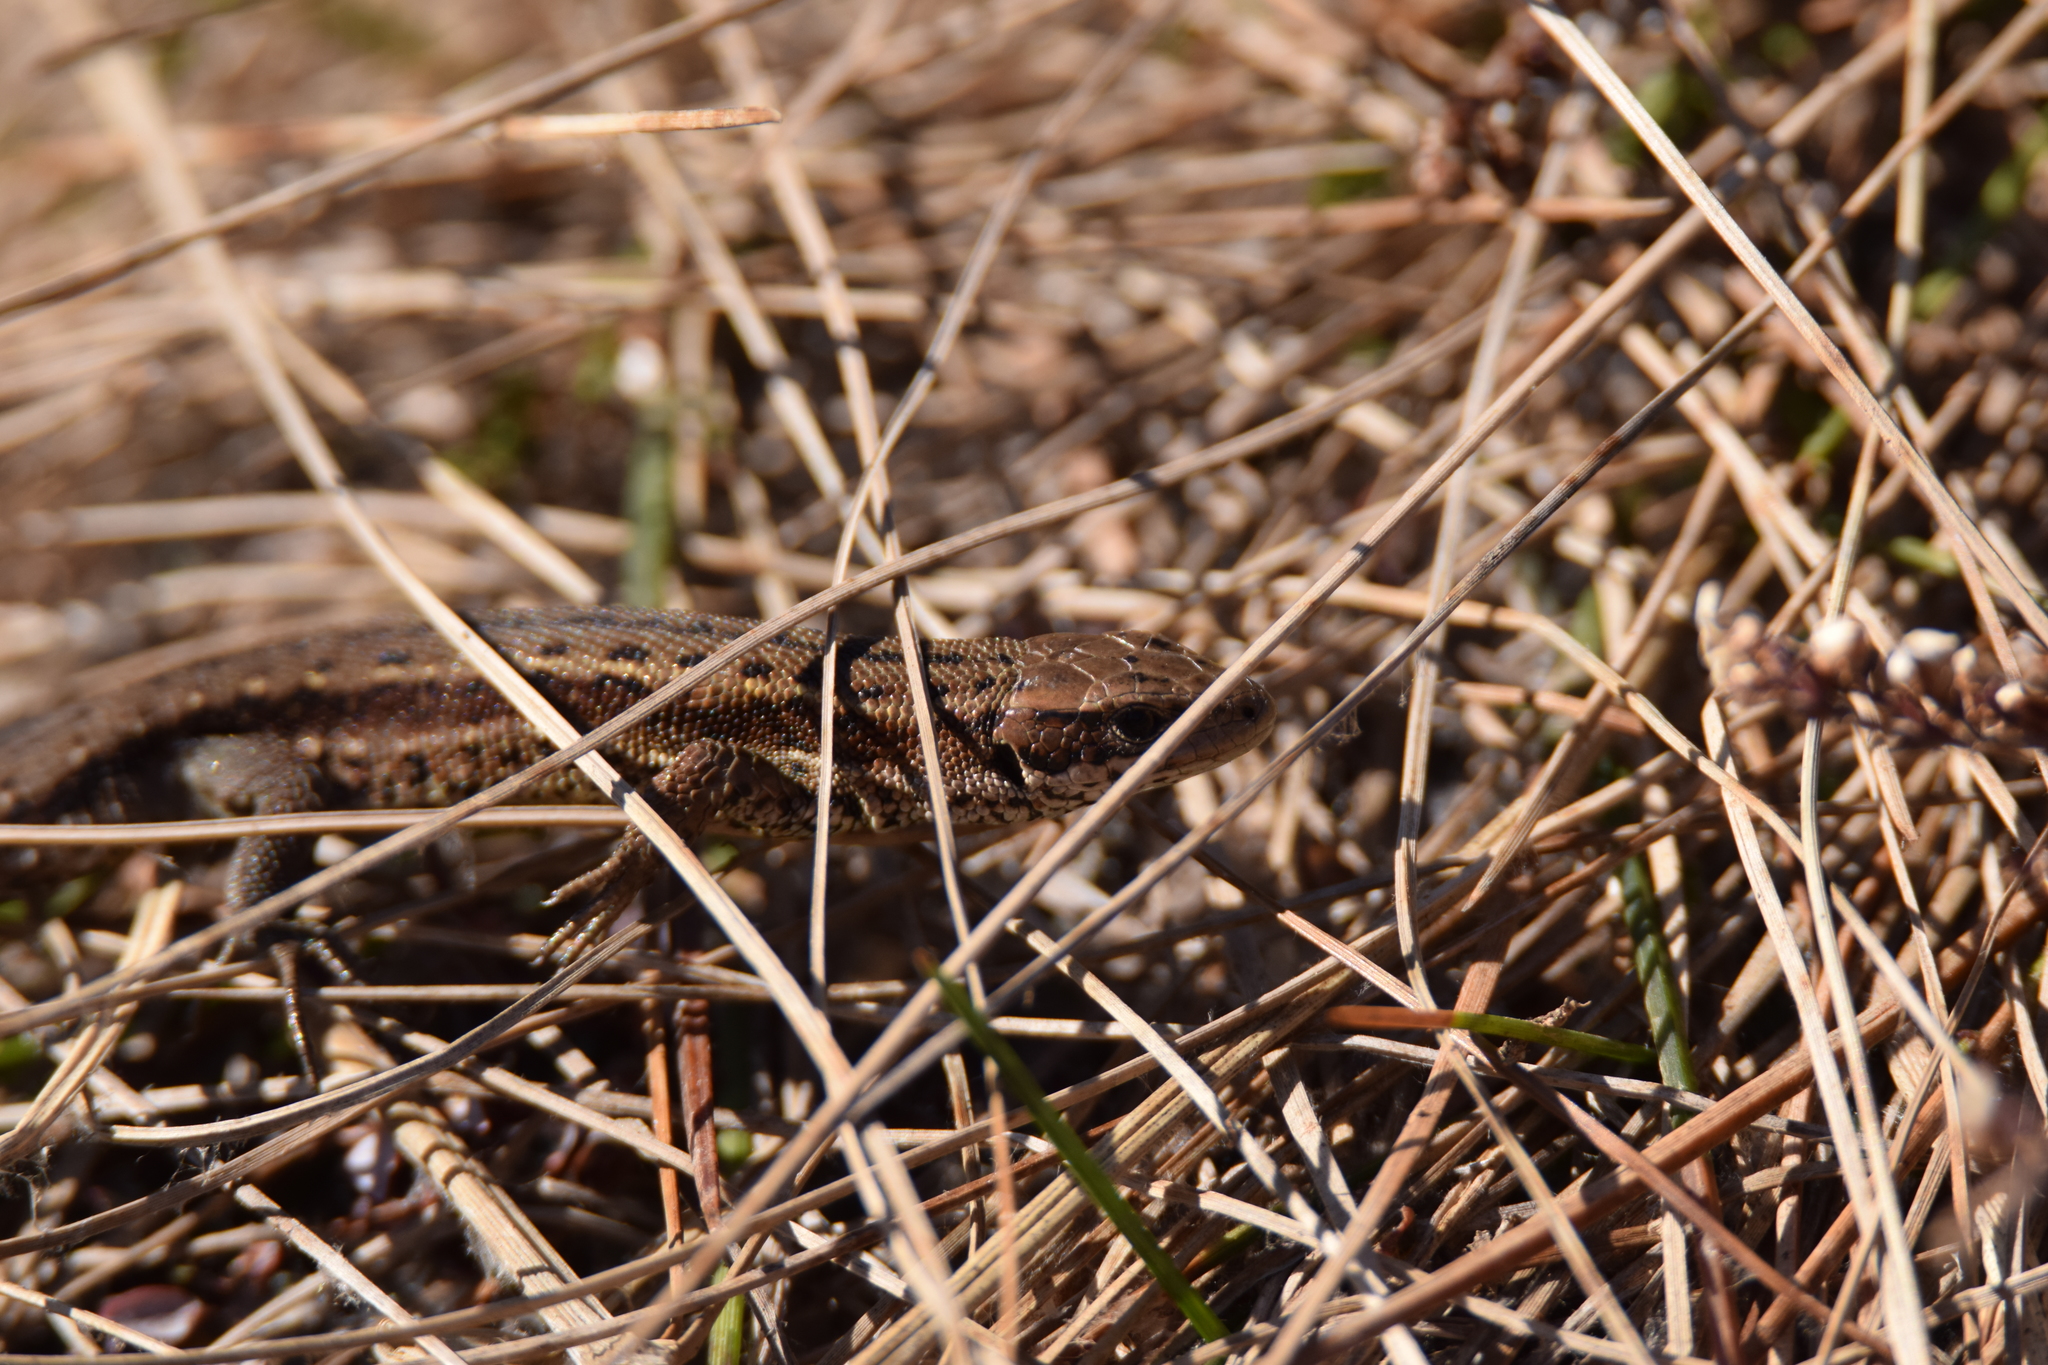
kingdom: Animalia
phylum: Chordata
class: Squamata
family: Lacertidae
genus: Zootoca
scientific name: Zootoca vivipara
